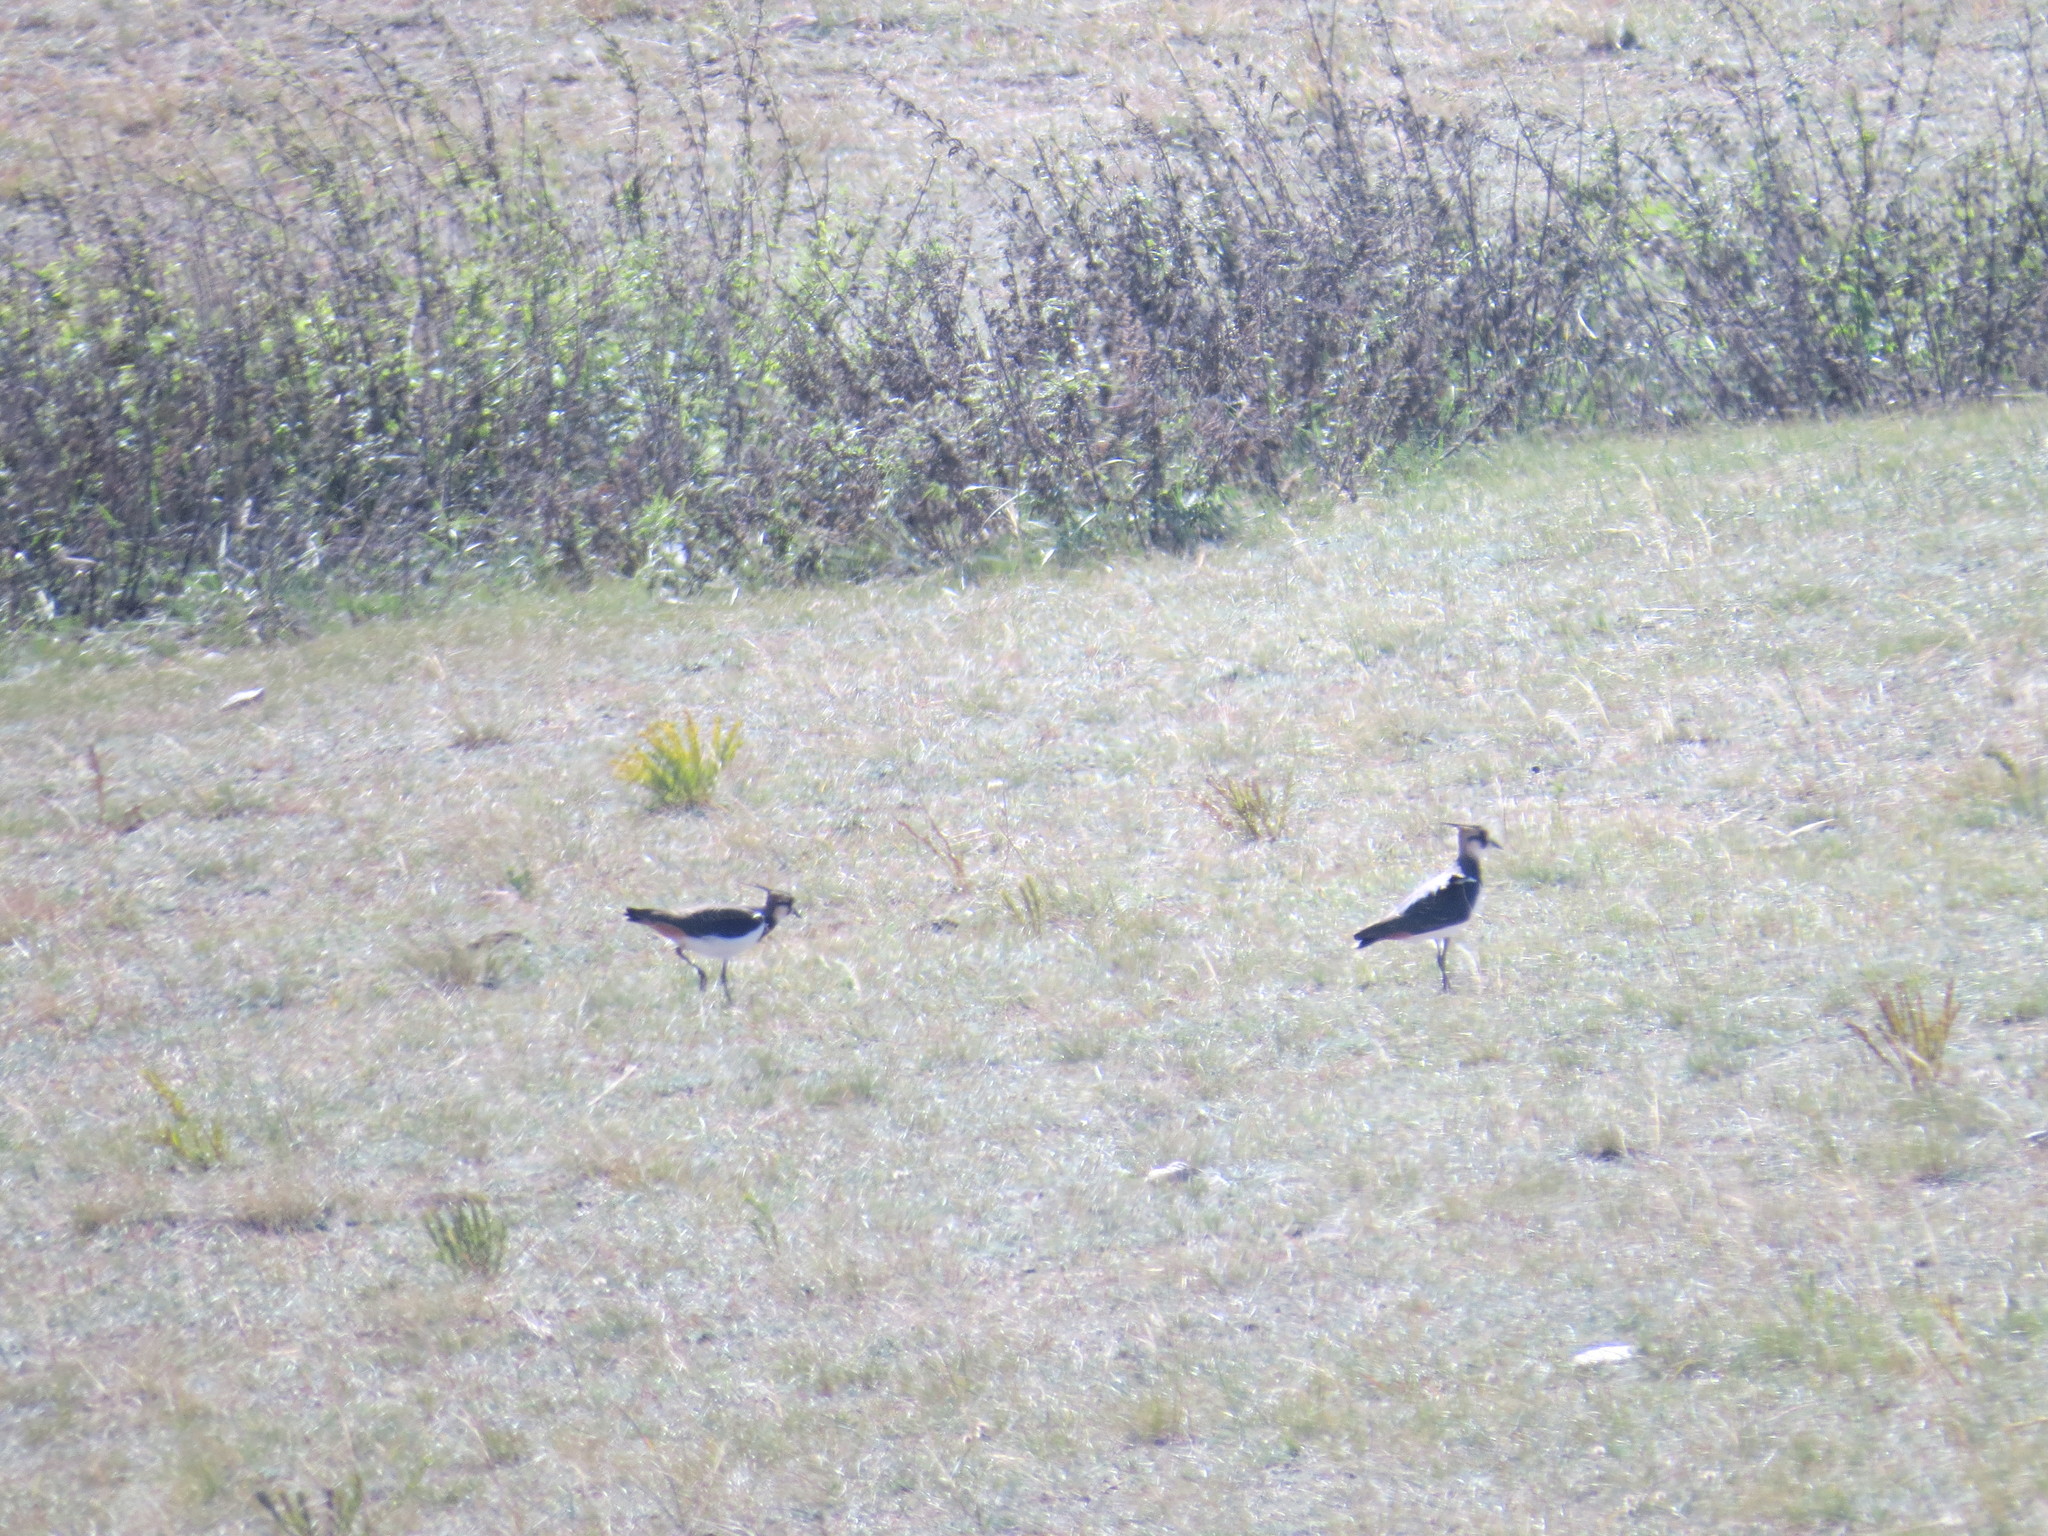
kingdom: Animalia
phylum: Chordata
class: Aves
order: Charadriiformes
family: Charadriidae
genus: Vanellus
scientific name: Vanellus vanellus
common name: Northern lapwing
